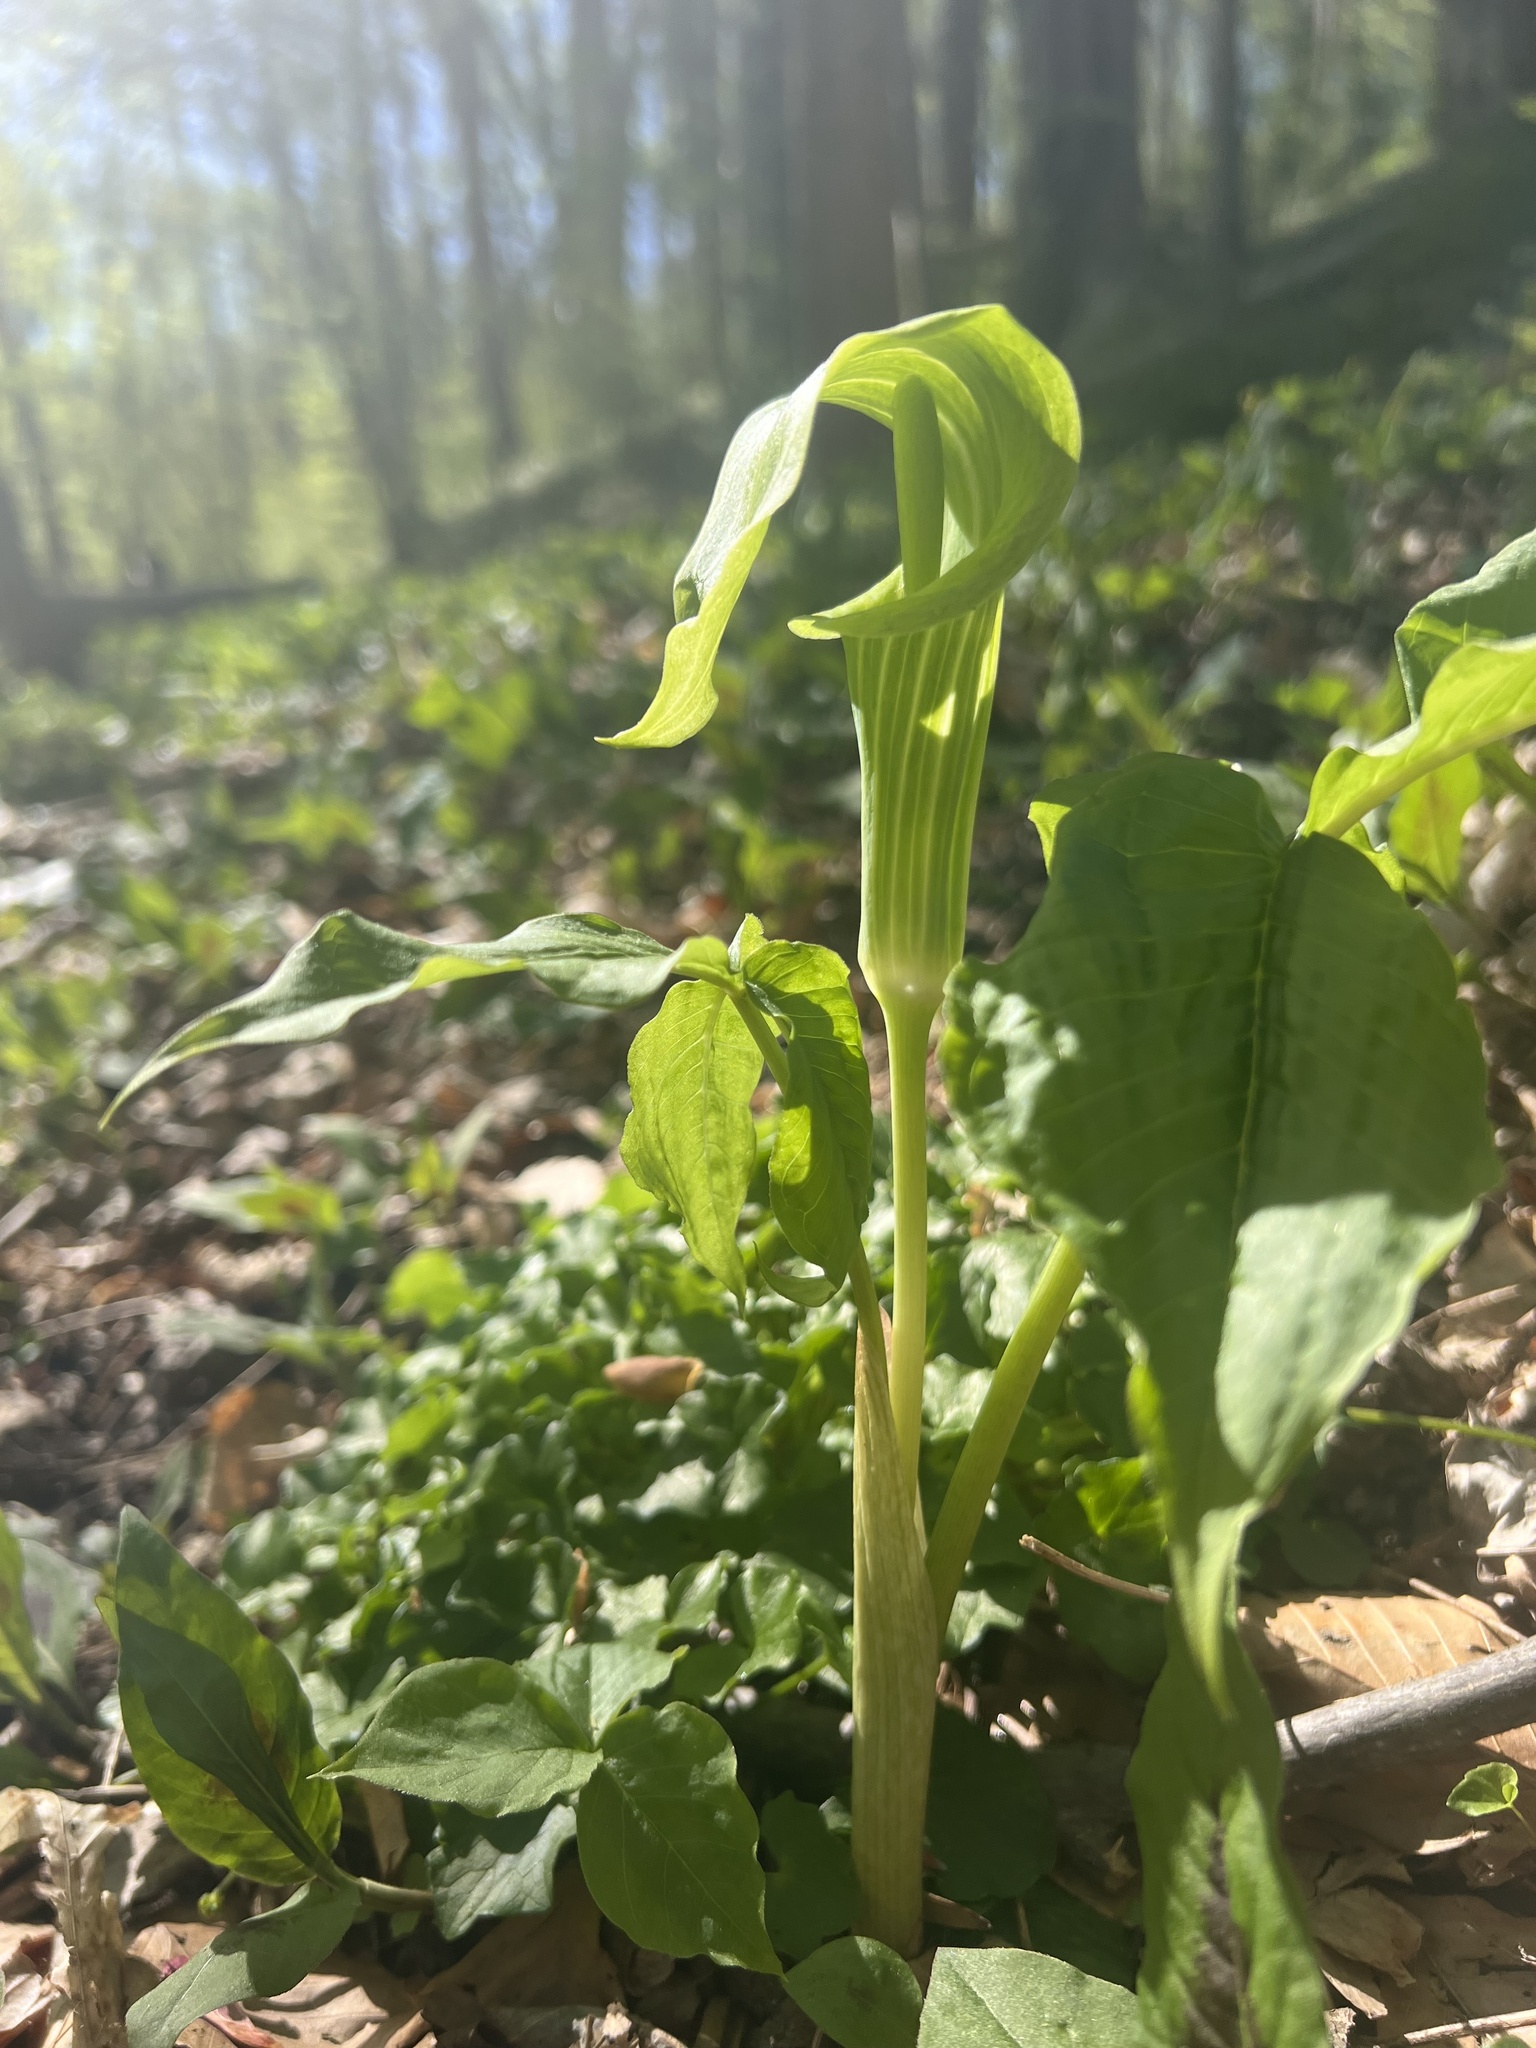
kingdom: Plantae
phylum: Tracheophyta
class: Liliopsida
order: Alismatales
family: Araceae
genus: Arisaema
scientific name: Arisaema triphyllum
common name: Jack-in-the-pulpit
